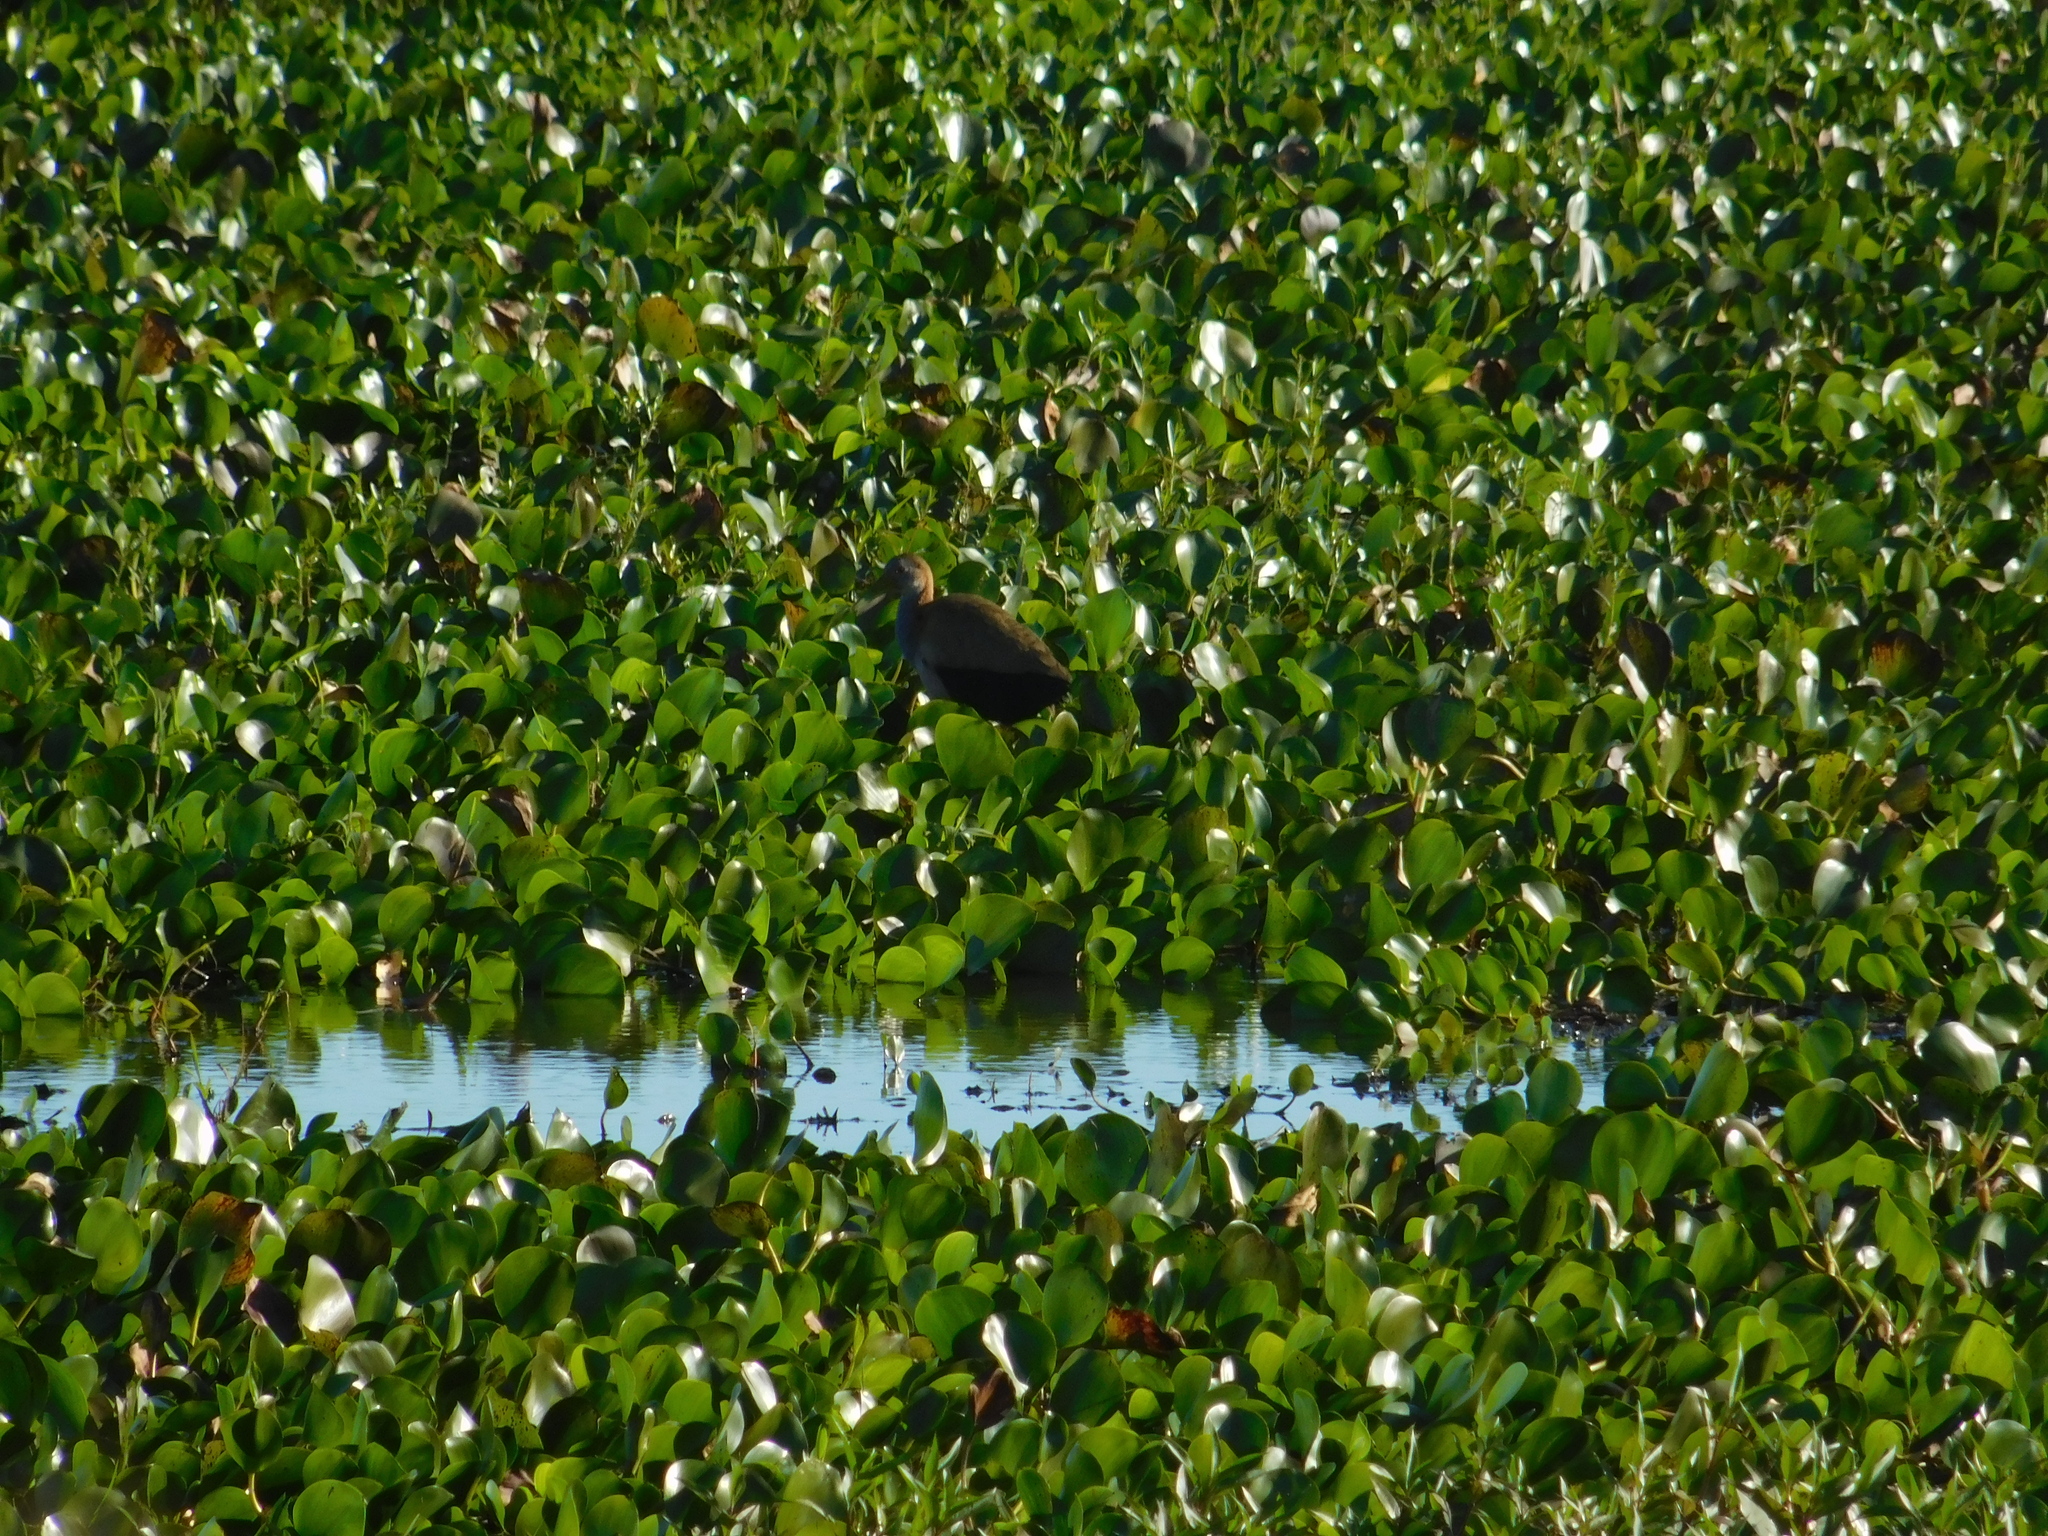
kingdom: Animalia
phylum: Chordata
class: Aves
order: Gruiformes
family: Rallidae
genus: Aramides
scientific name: Aramides ypecaha
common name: Giant wood rail
